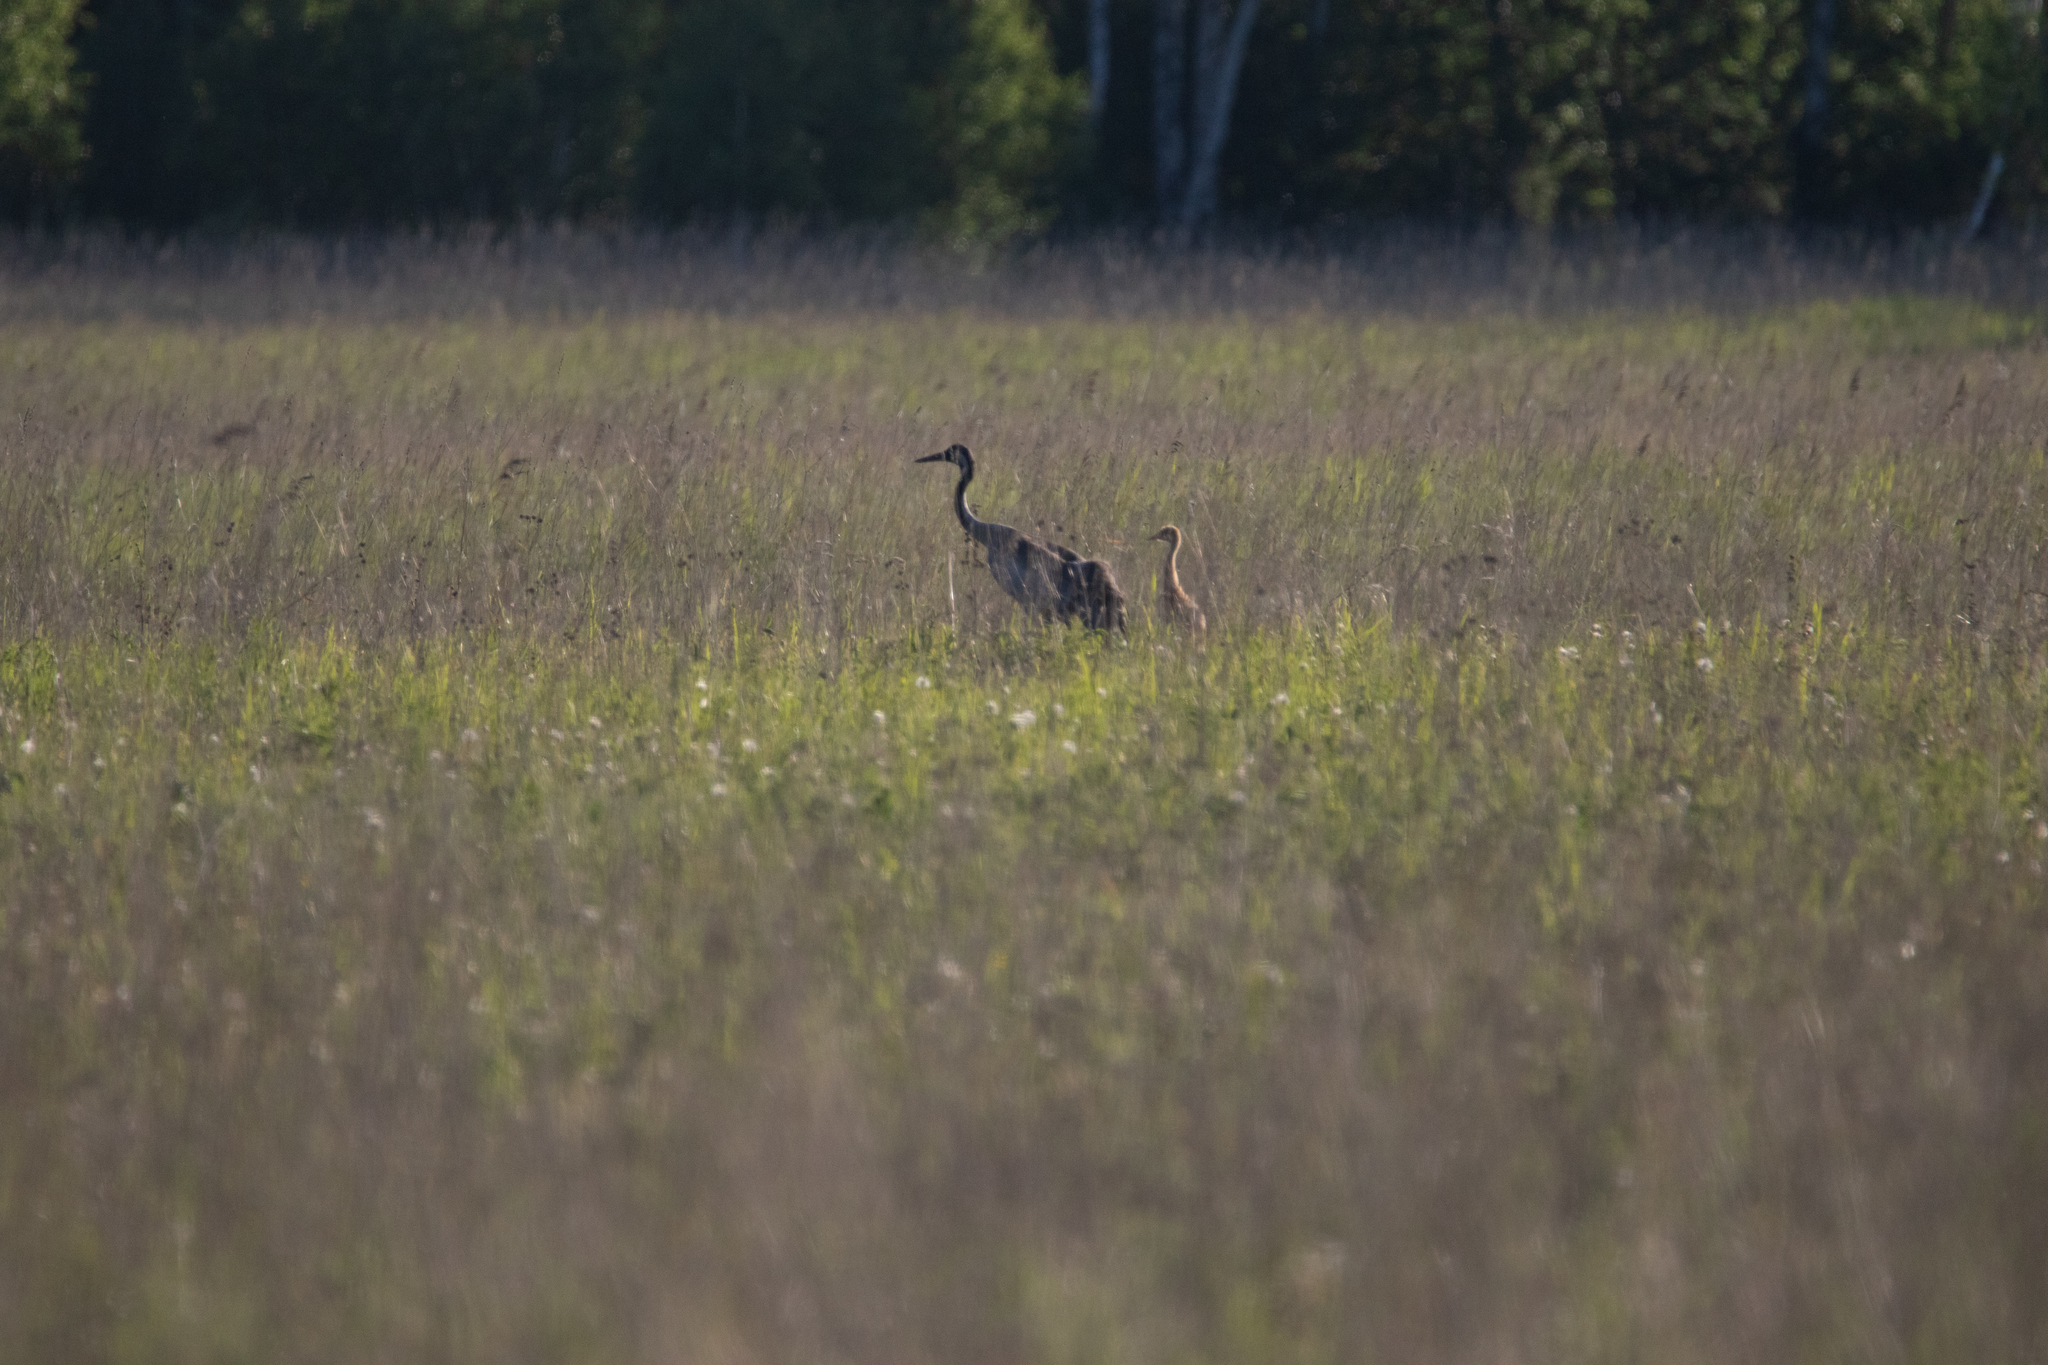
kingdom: Animalia
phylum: Chordata
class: Aves
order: Gruiformes
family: Gruidae
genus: Grus
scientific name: Grus grus
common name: Common crane
